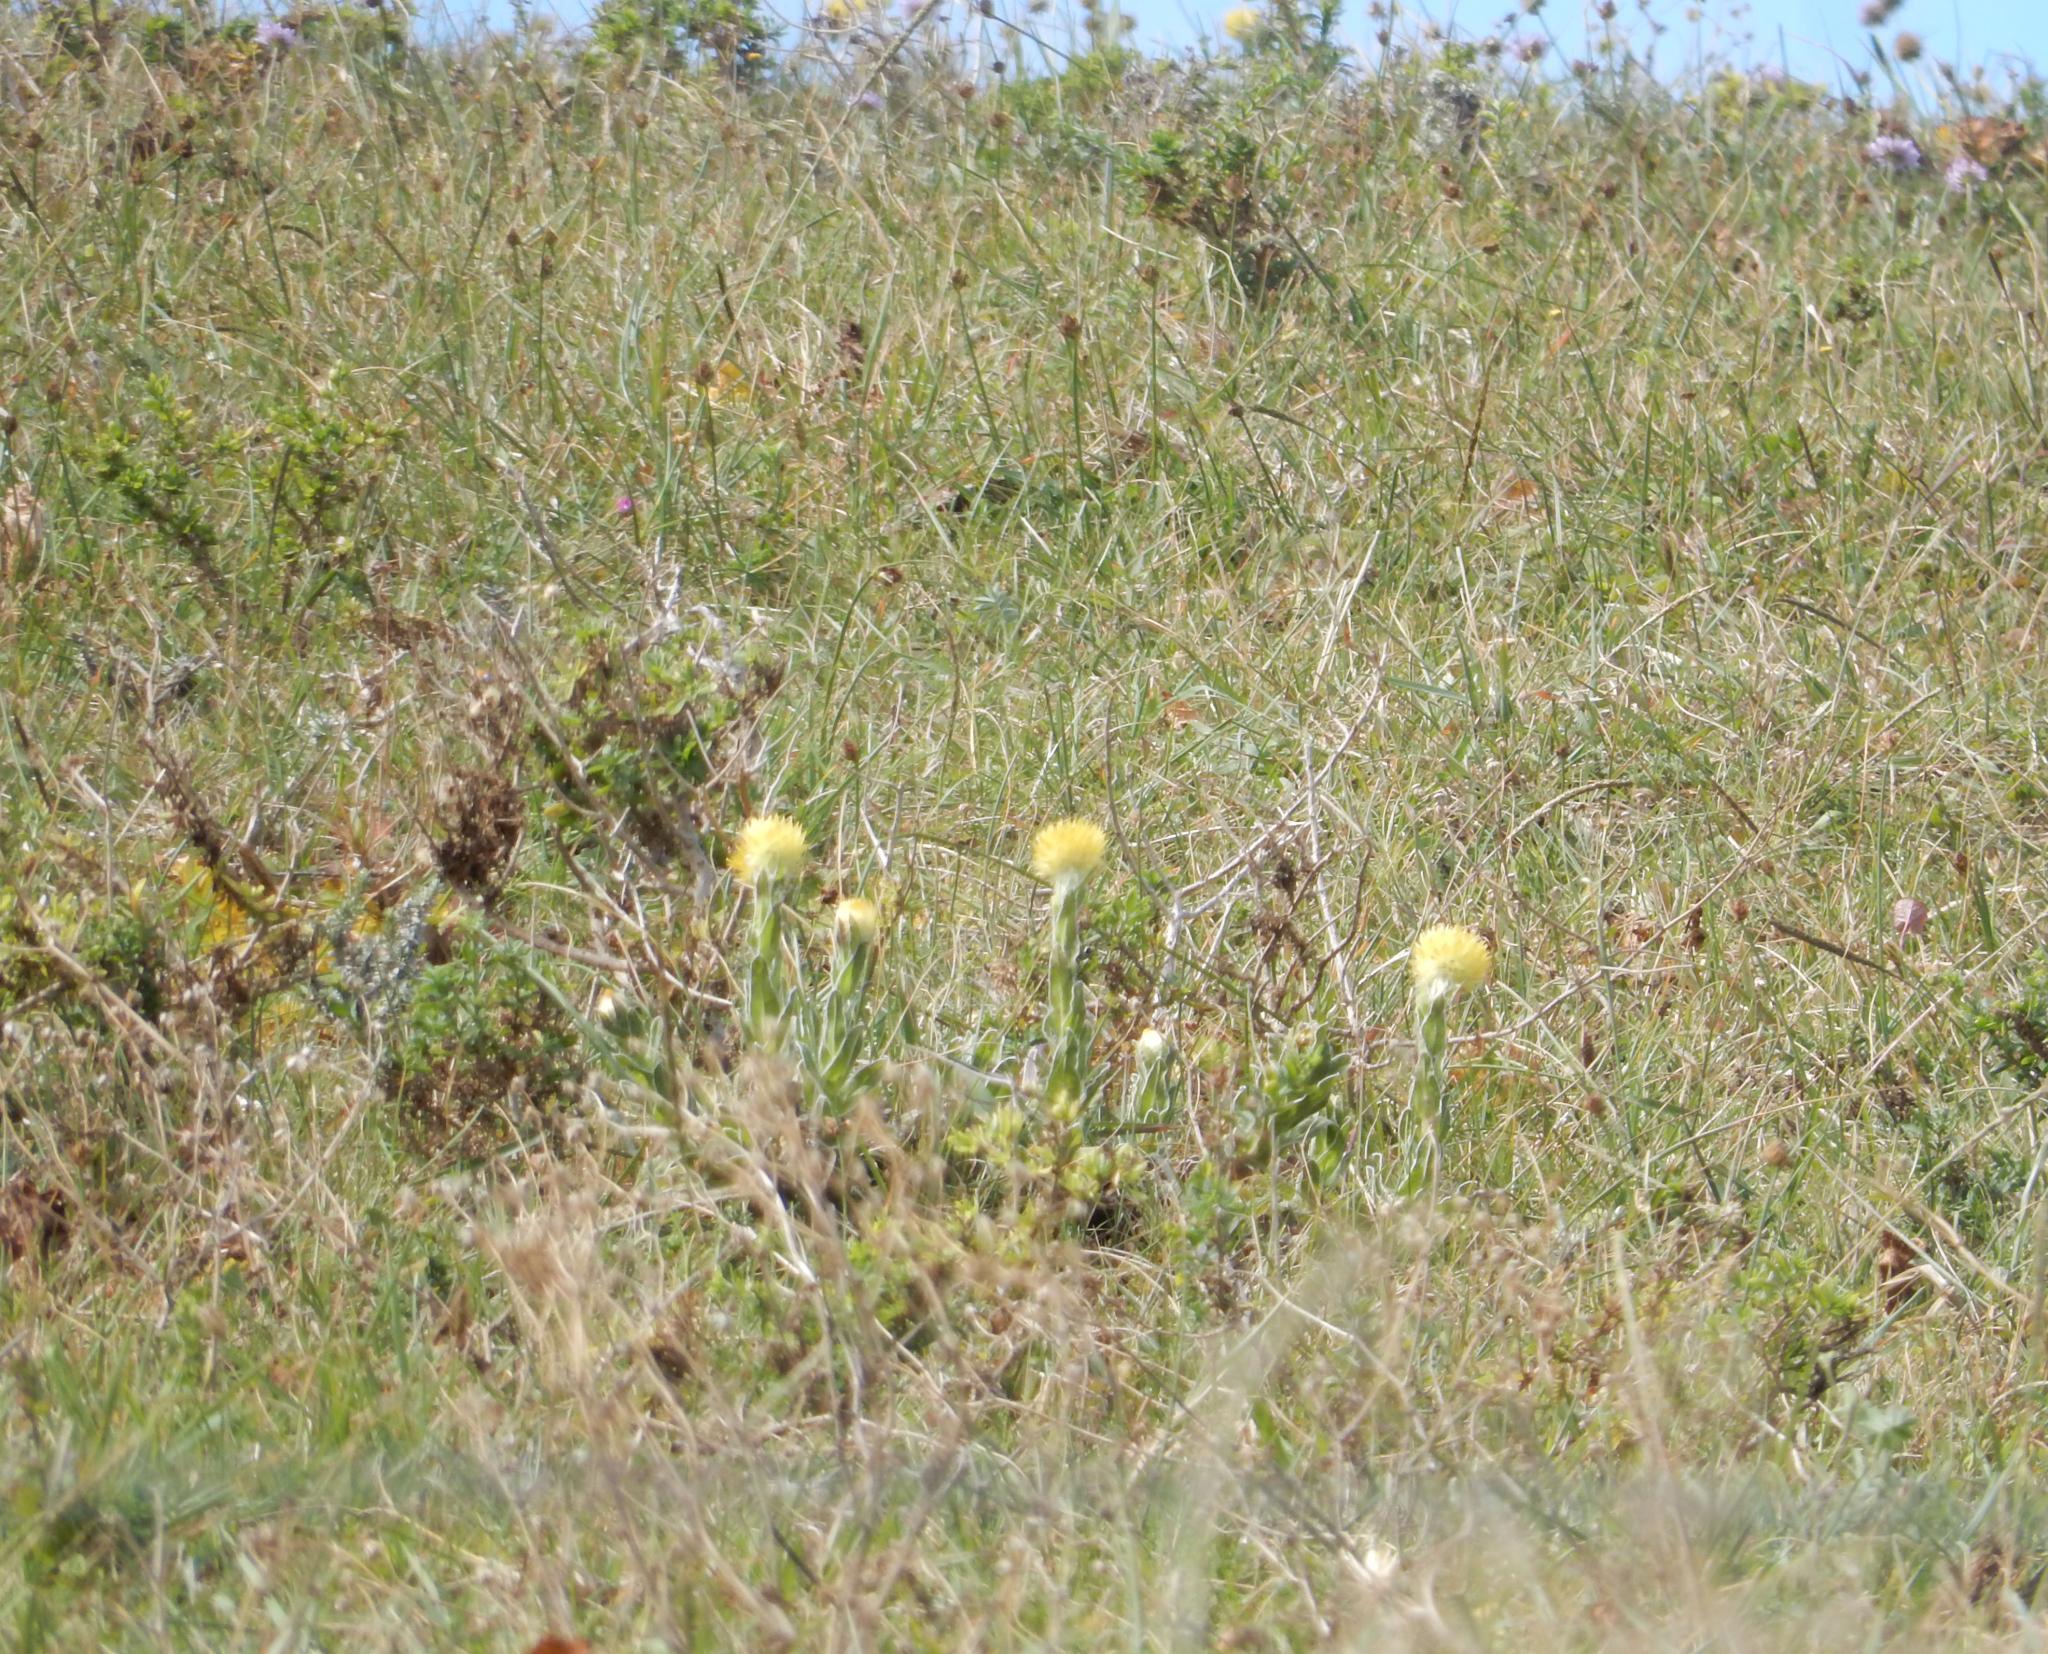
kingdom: Plantae
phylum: Tracheophyta
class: Magnoliopsida
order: Asterales
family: Asteraceae
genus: Helichrysum
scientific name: Helichrysum aureum
